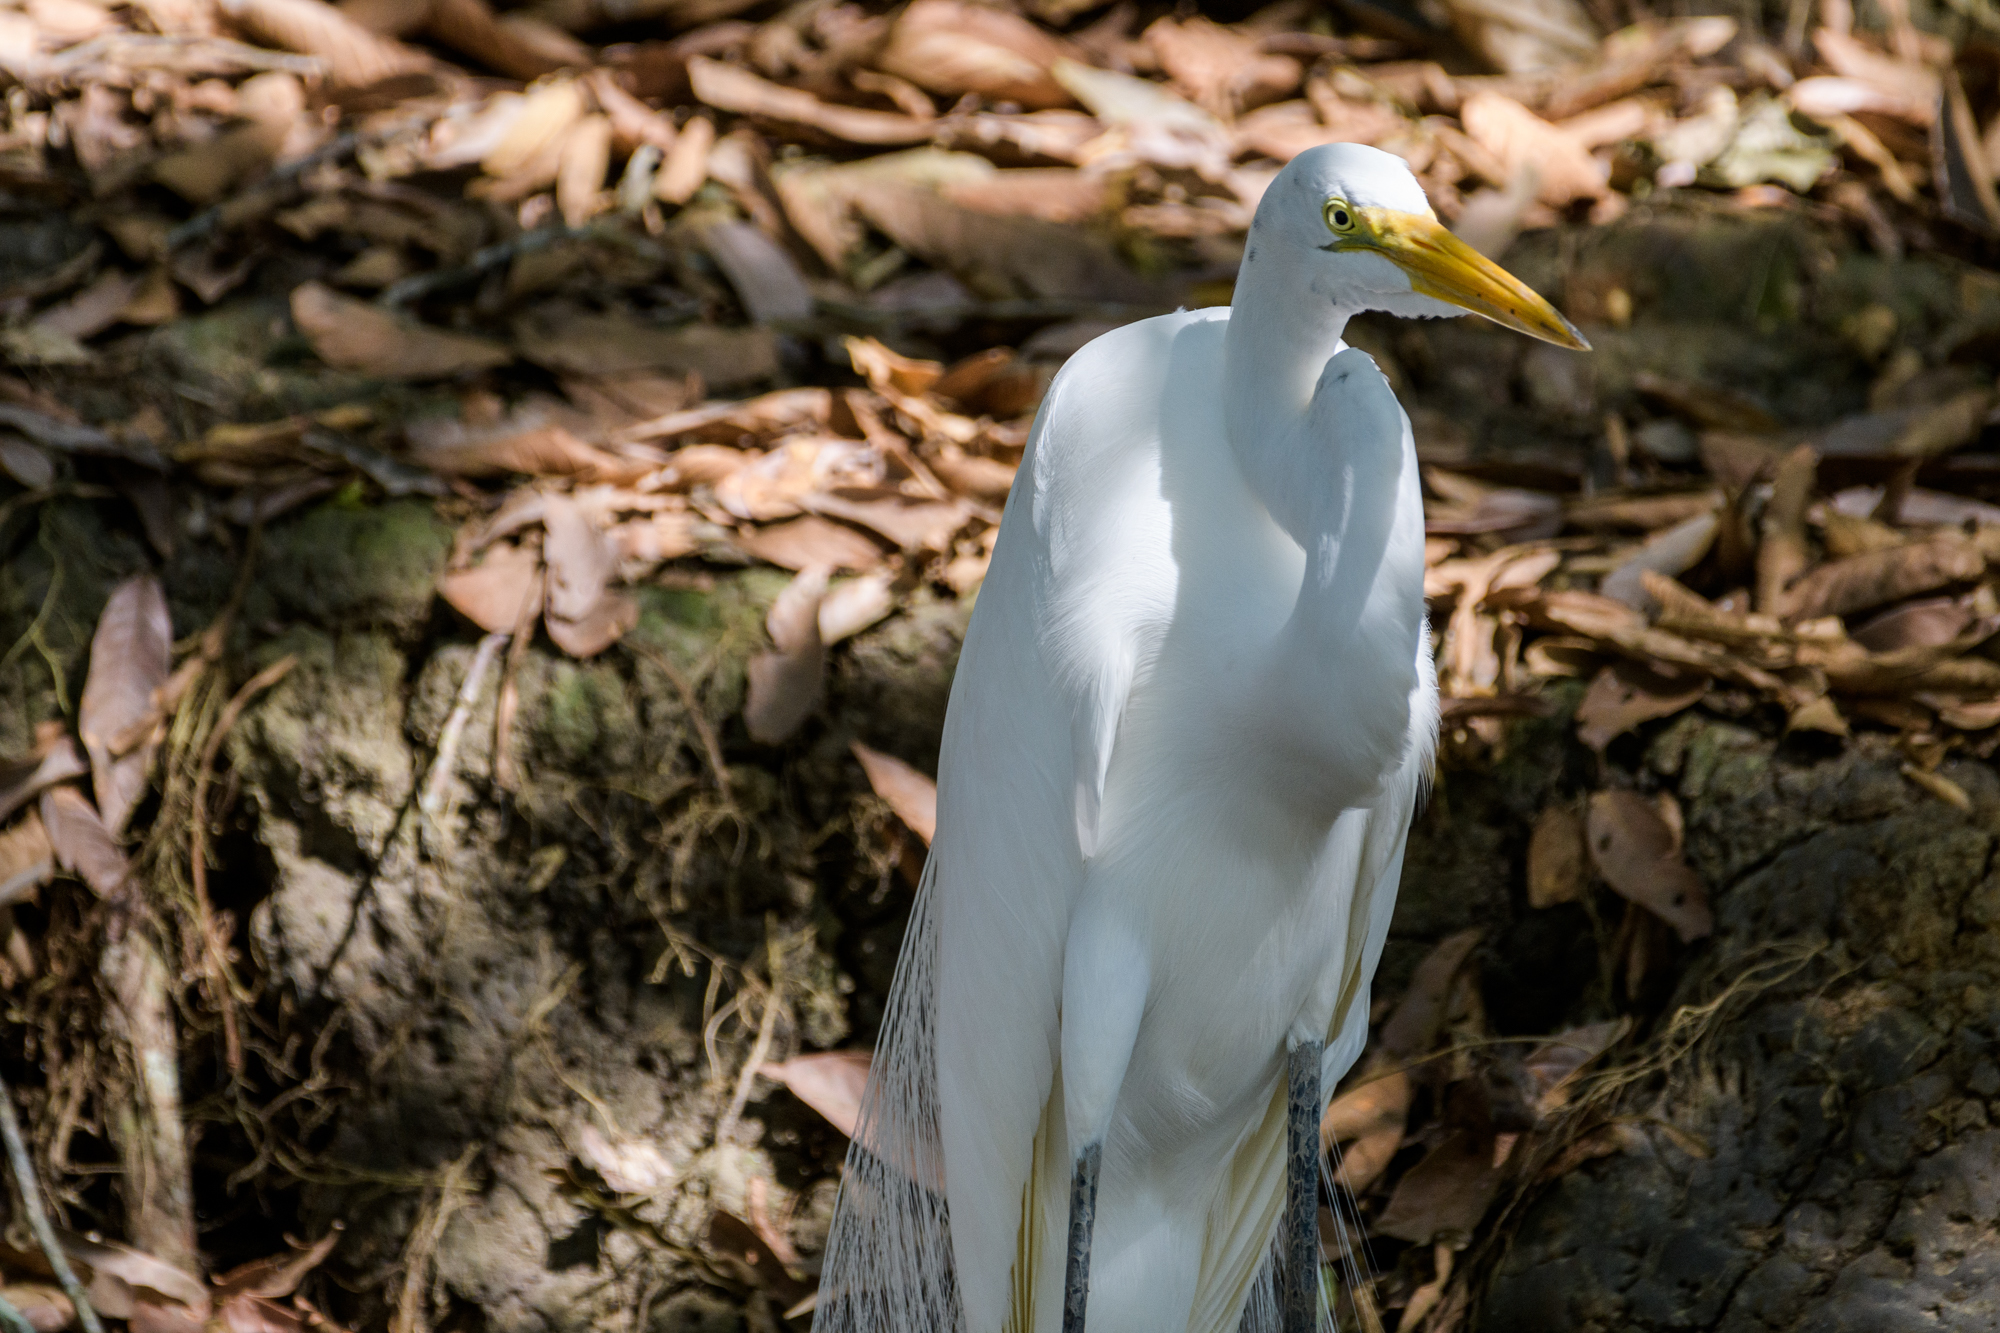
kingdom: Animalia
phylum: Chordata
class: Aves
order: Pelecaniformes
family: Ardeidae
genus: Ardea
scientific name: Ardea alba
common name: Great egret
